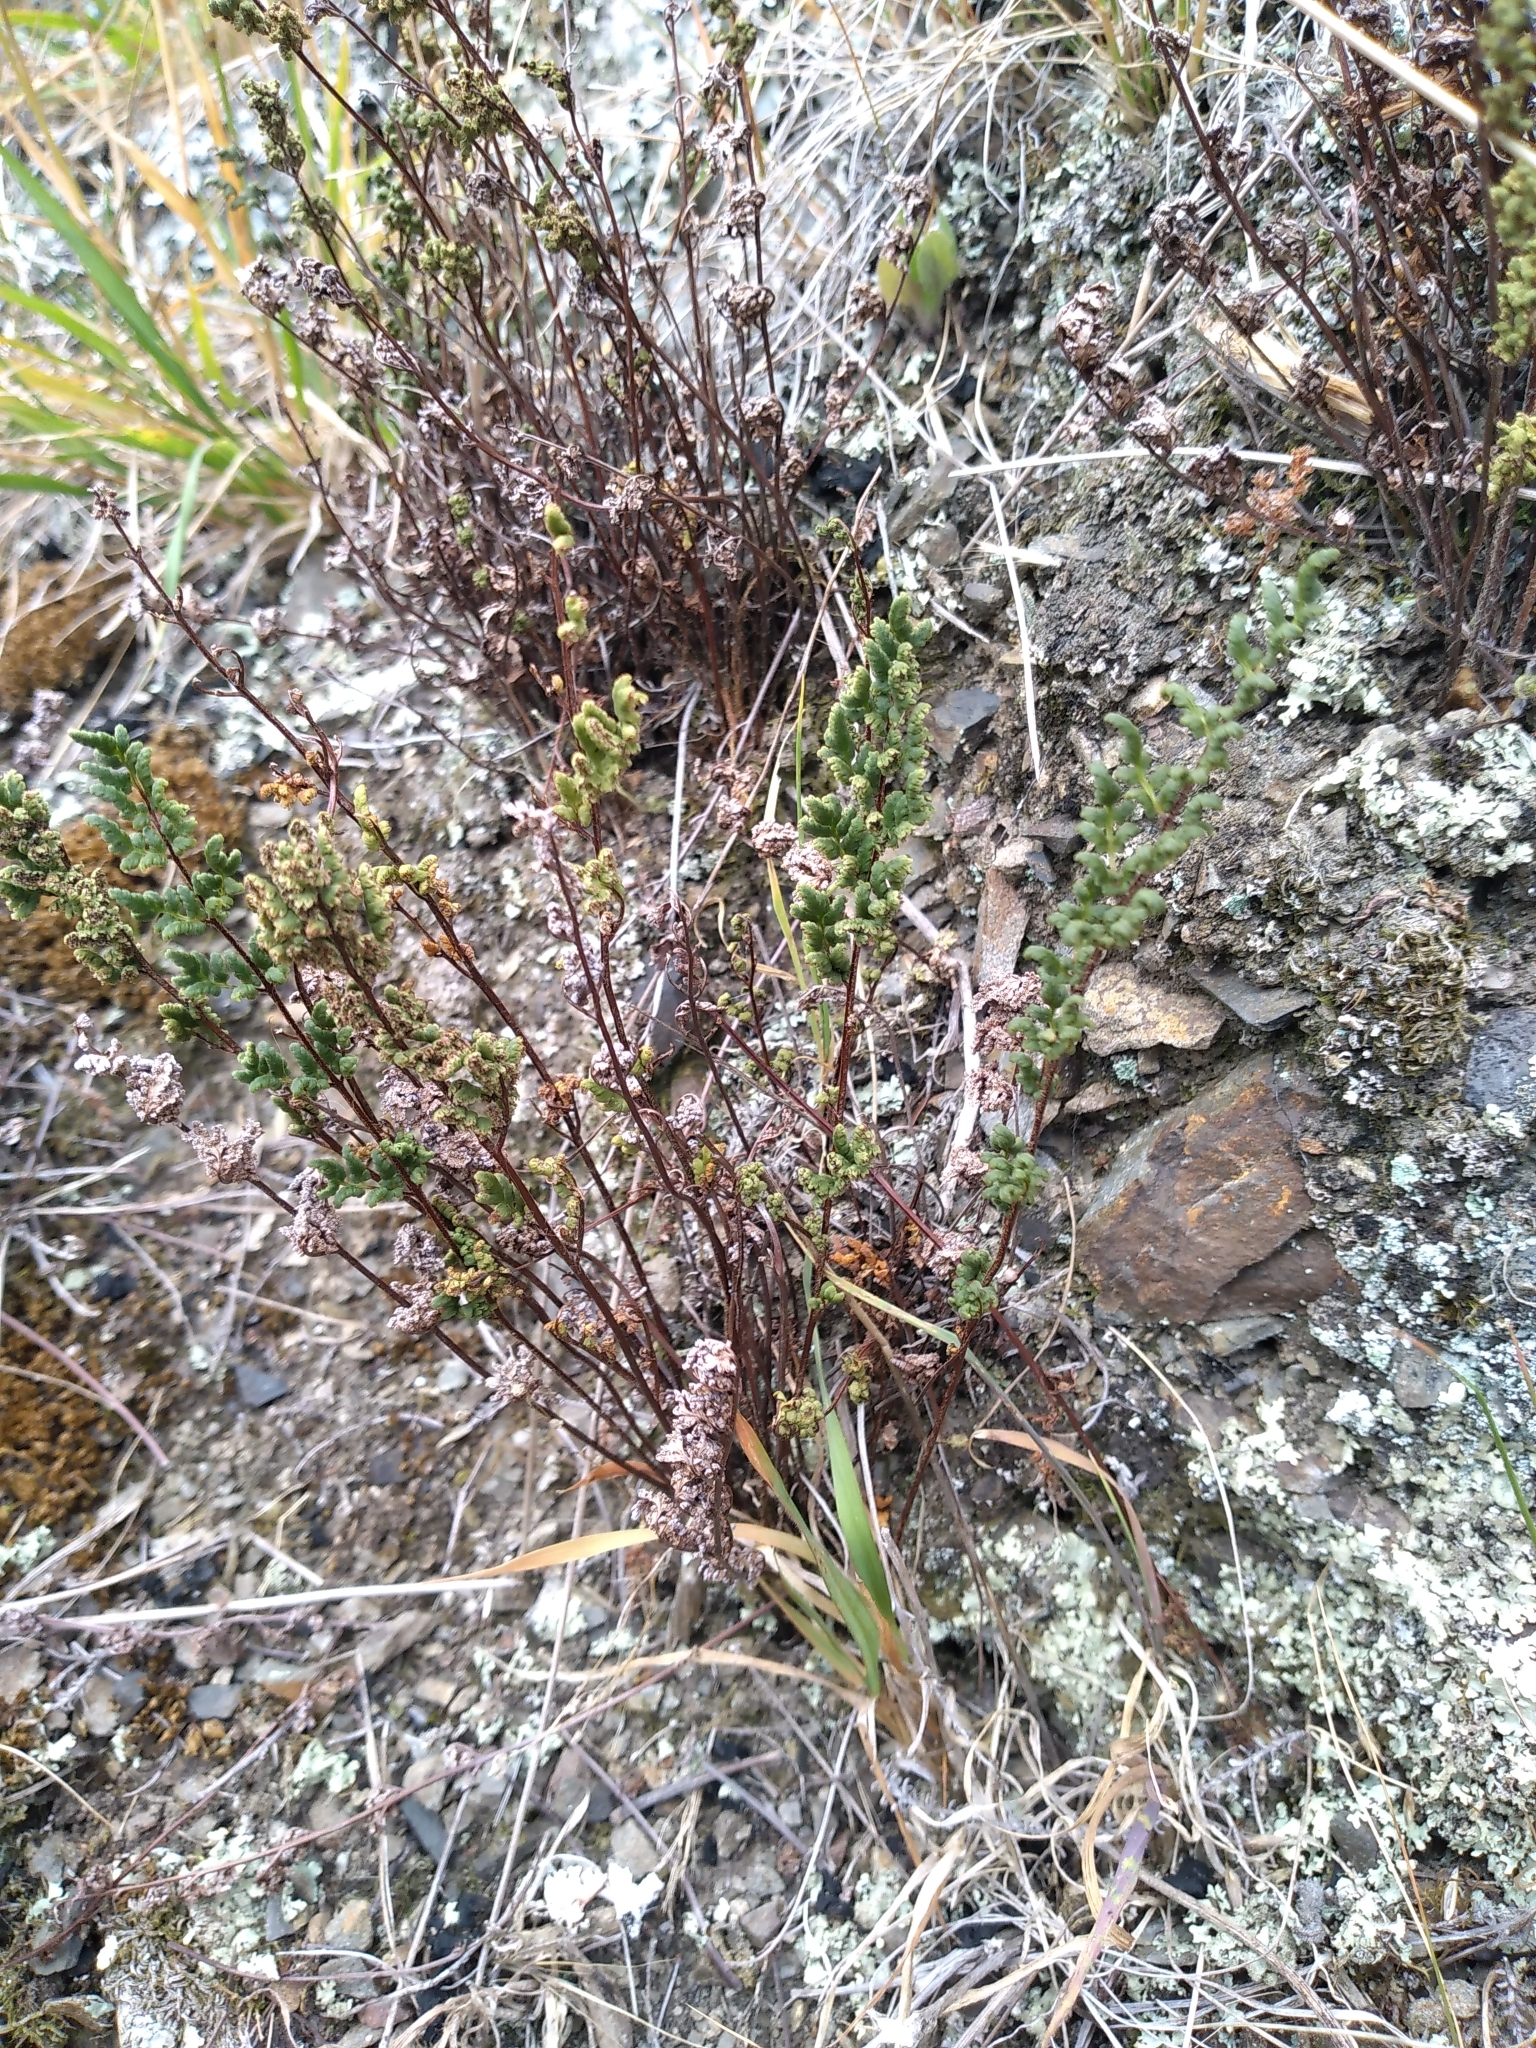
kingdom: Plantae
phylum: Tracheophyta
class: Polypodiopsida
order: Polypodiales
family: Pteridaceae
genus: Cheilanthes
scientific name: Cheilanthes sieberi
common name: Mulga fern
